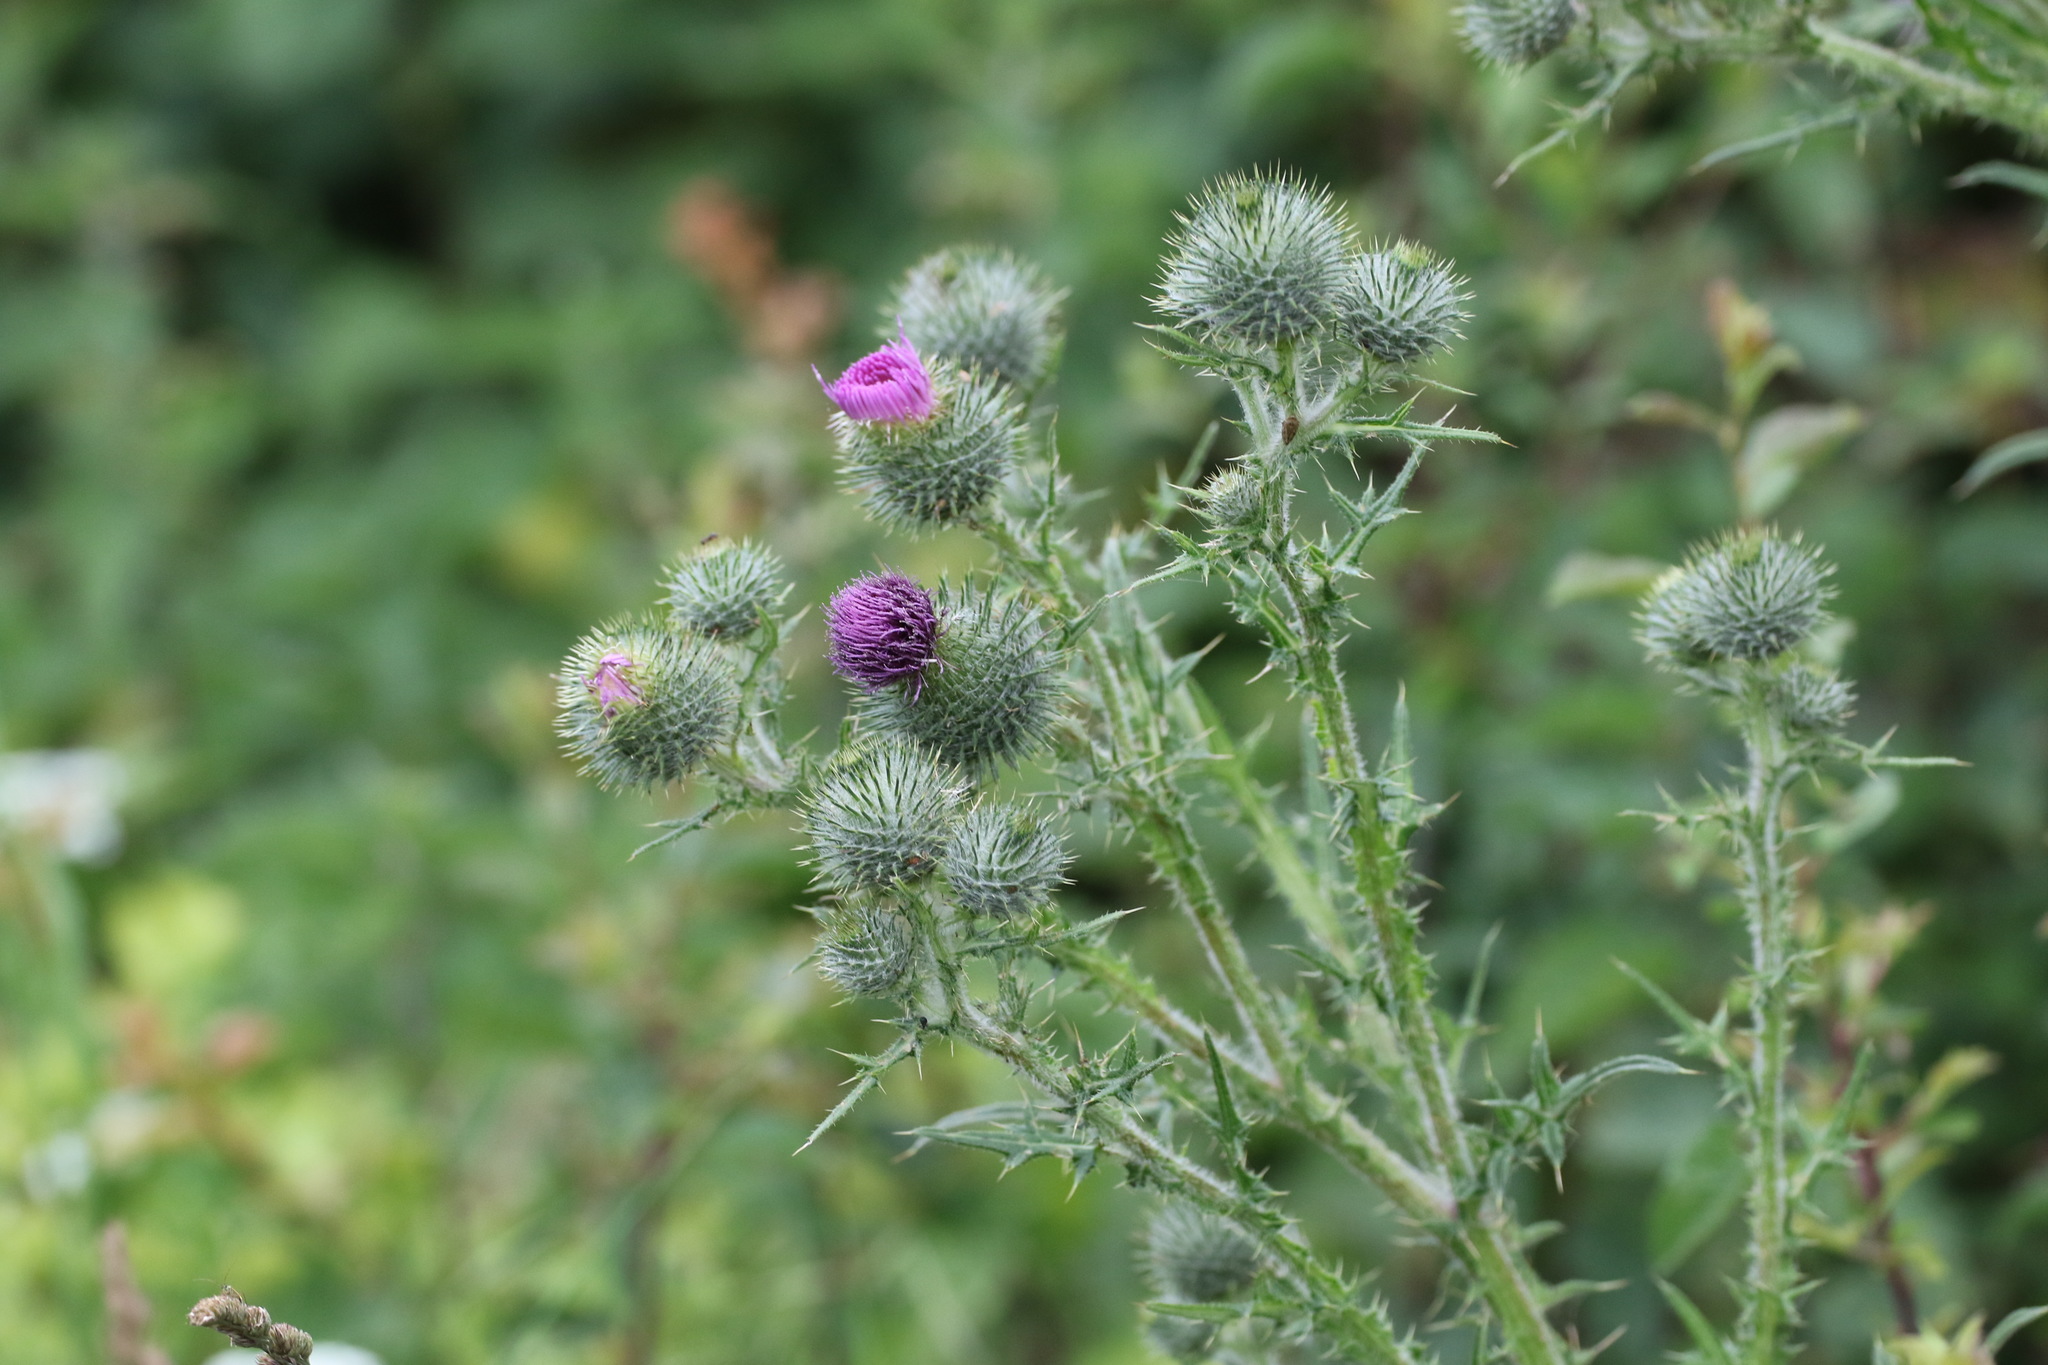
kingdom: Plantae
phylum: Tracheophyta
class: Magnoliopsida
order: Asterales
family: Asteraceae
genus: Cirsium
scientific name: Cirsium vulgare
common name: Bull thistle
